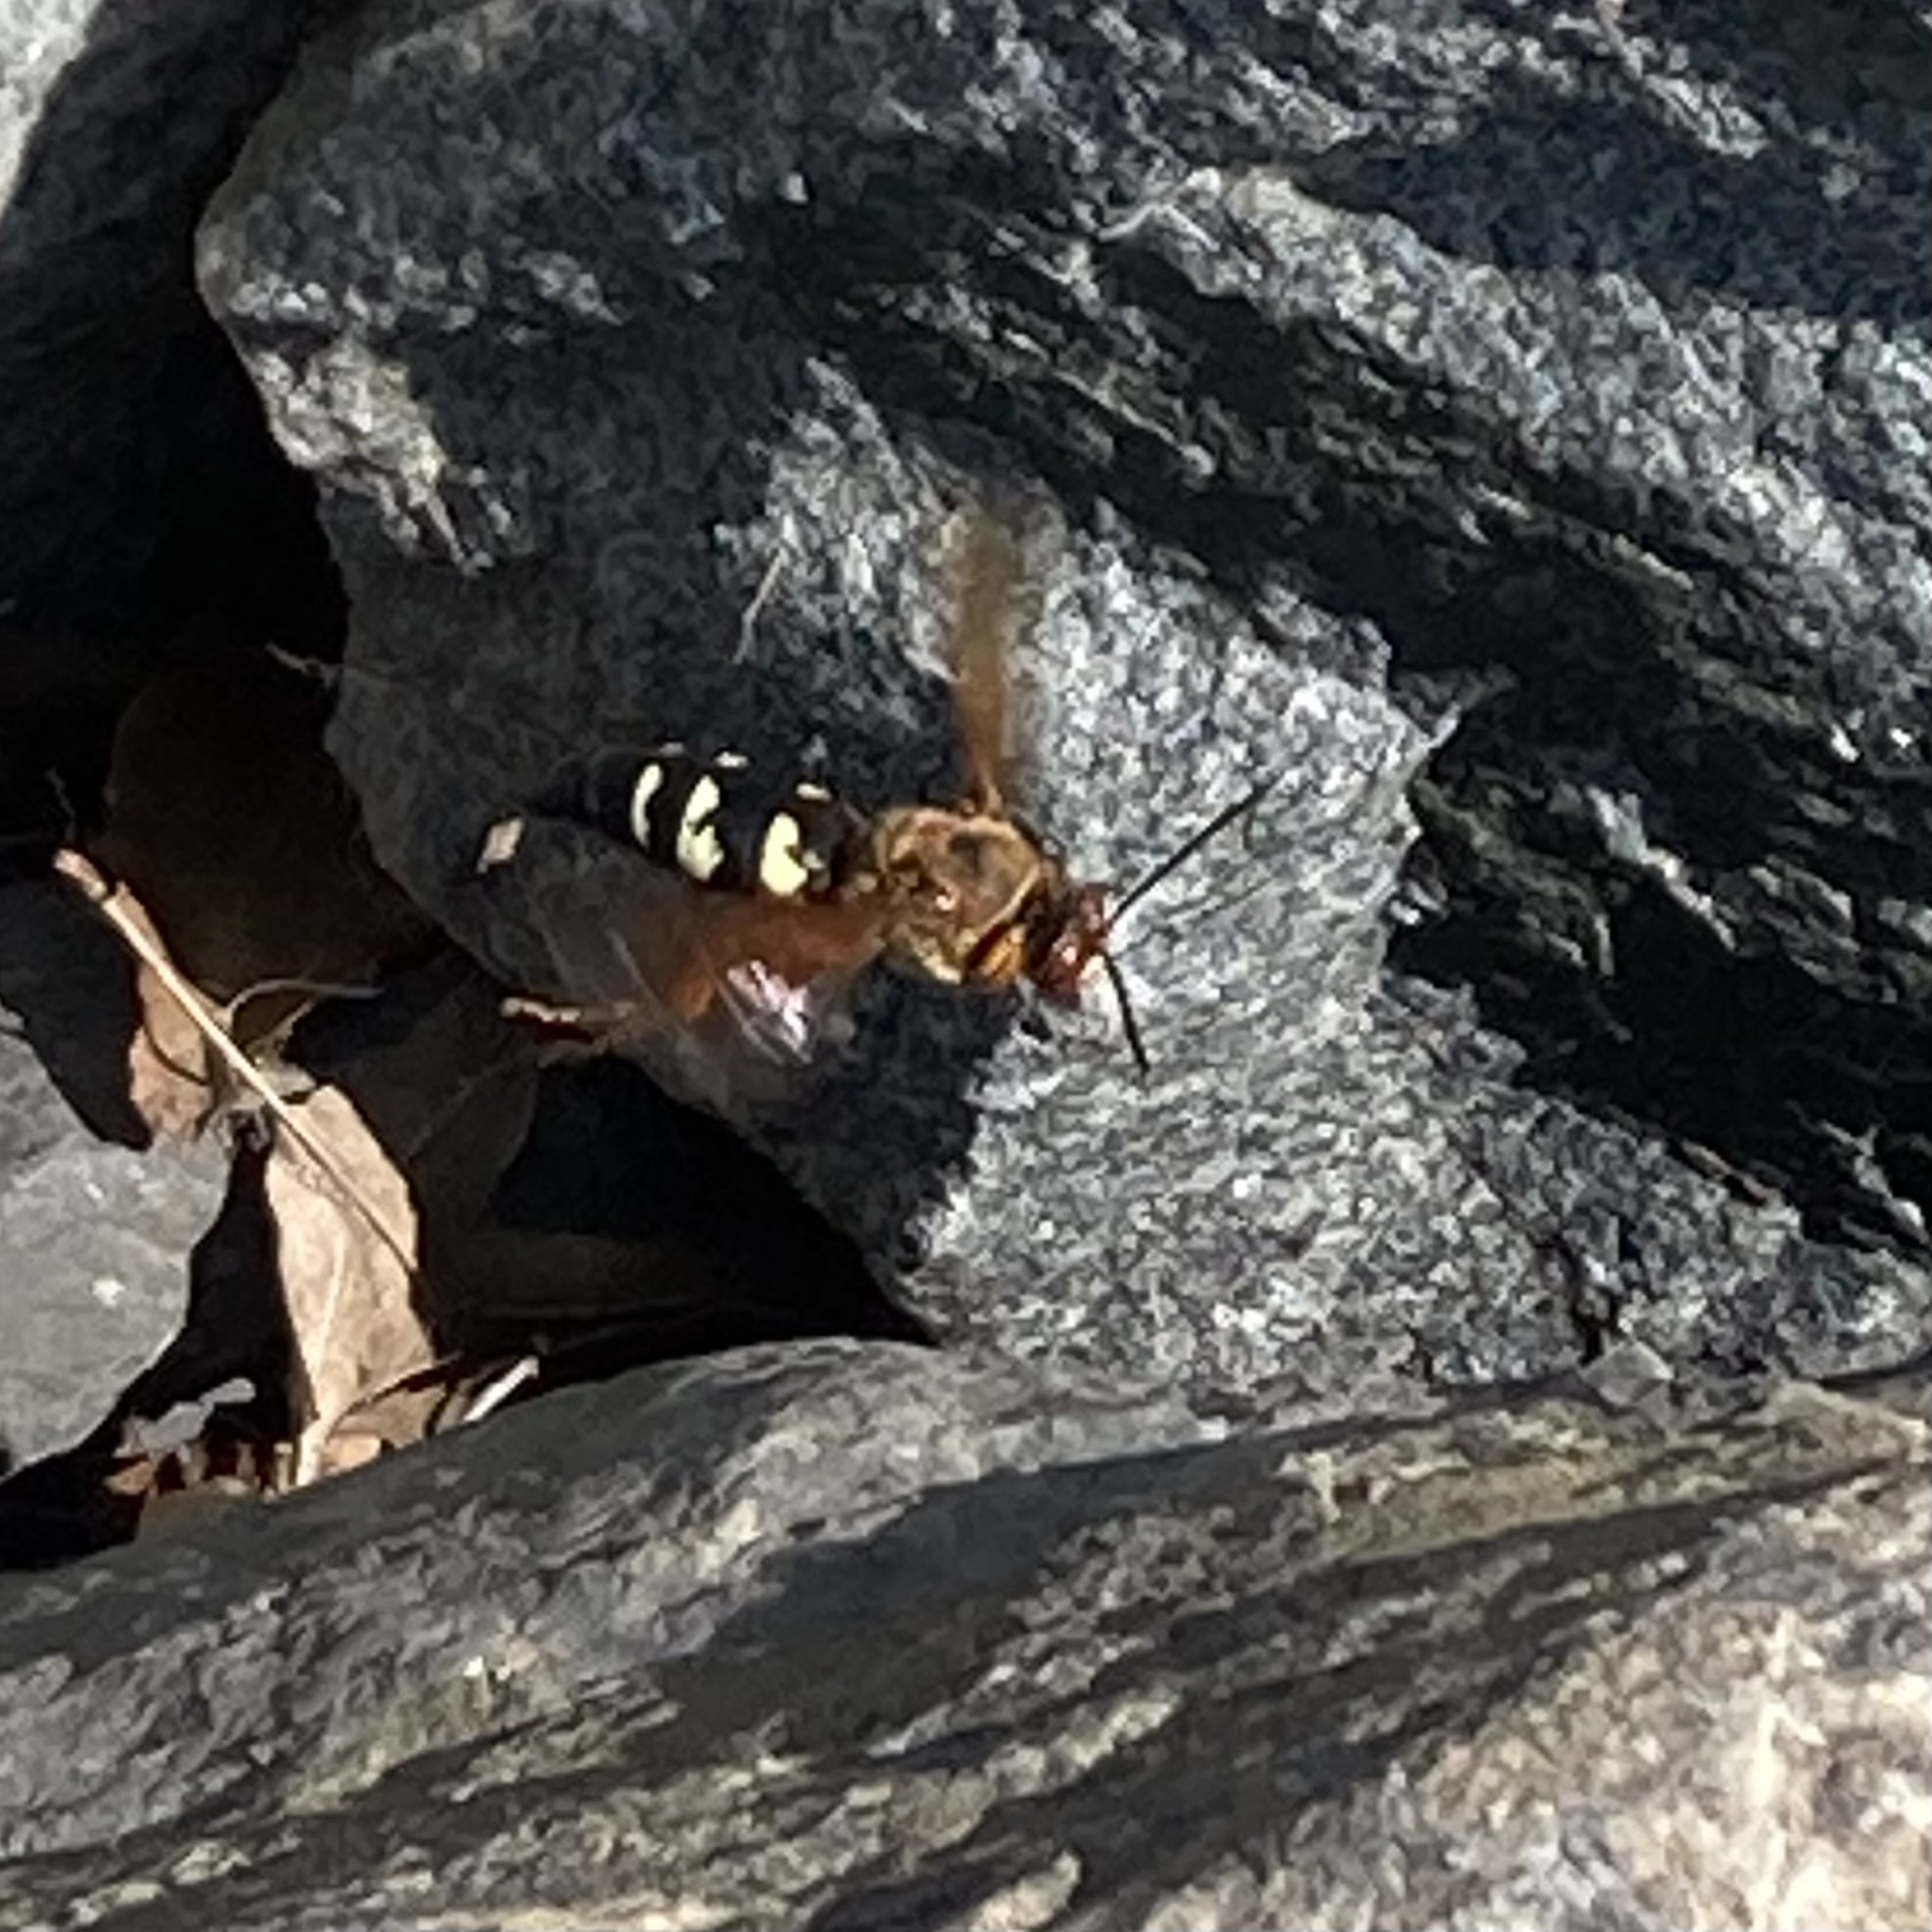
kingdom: Animalia
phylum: Arthropoda
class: Insecta
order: Hymenoptera
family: Crabronidae
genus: Sphecius
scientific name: Sphecius speciosus
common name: Cicada killer
